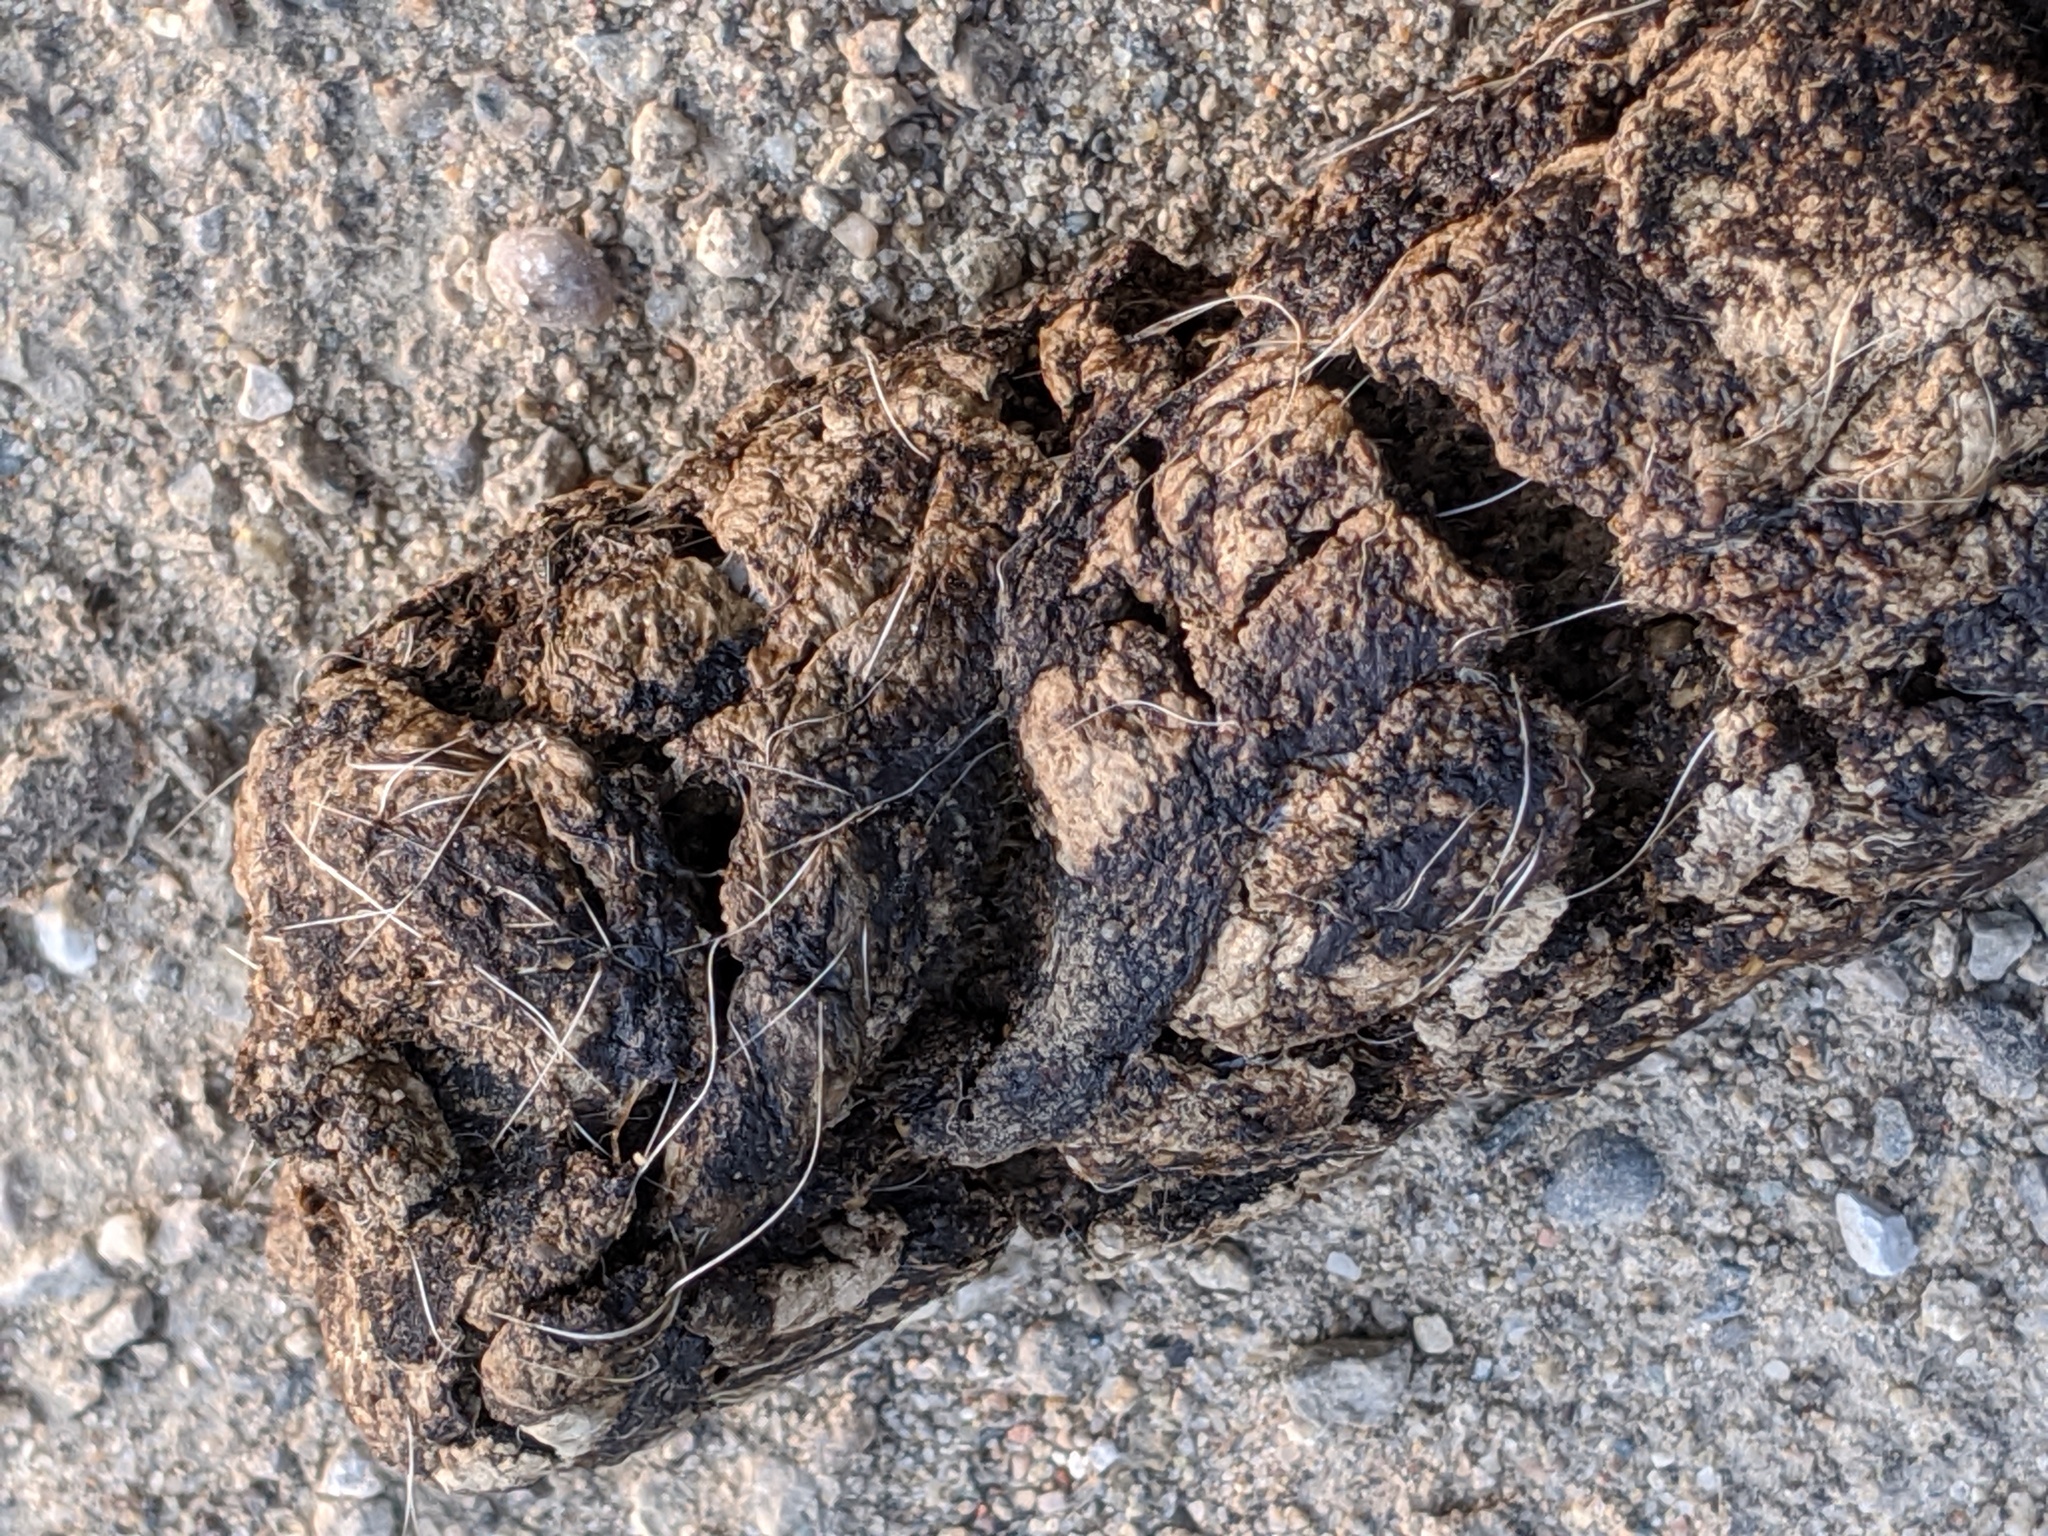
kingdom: Animalia
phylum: Chordata
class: Mammalia
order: Carnivora
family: Canidae
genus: Canis
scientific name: Canis latrans
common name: Coyote
